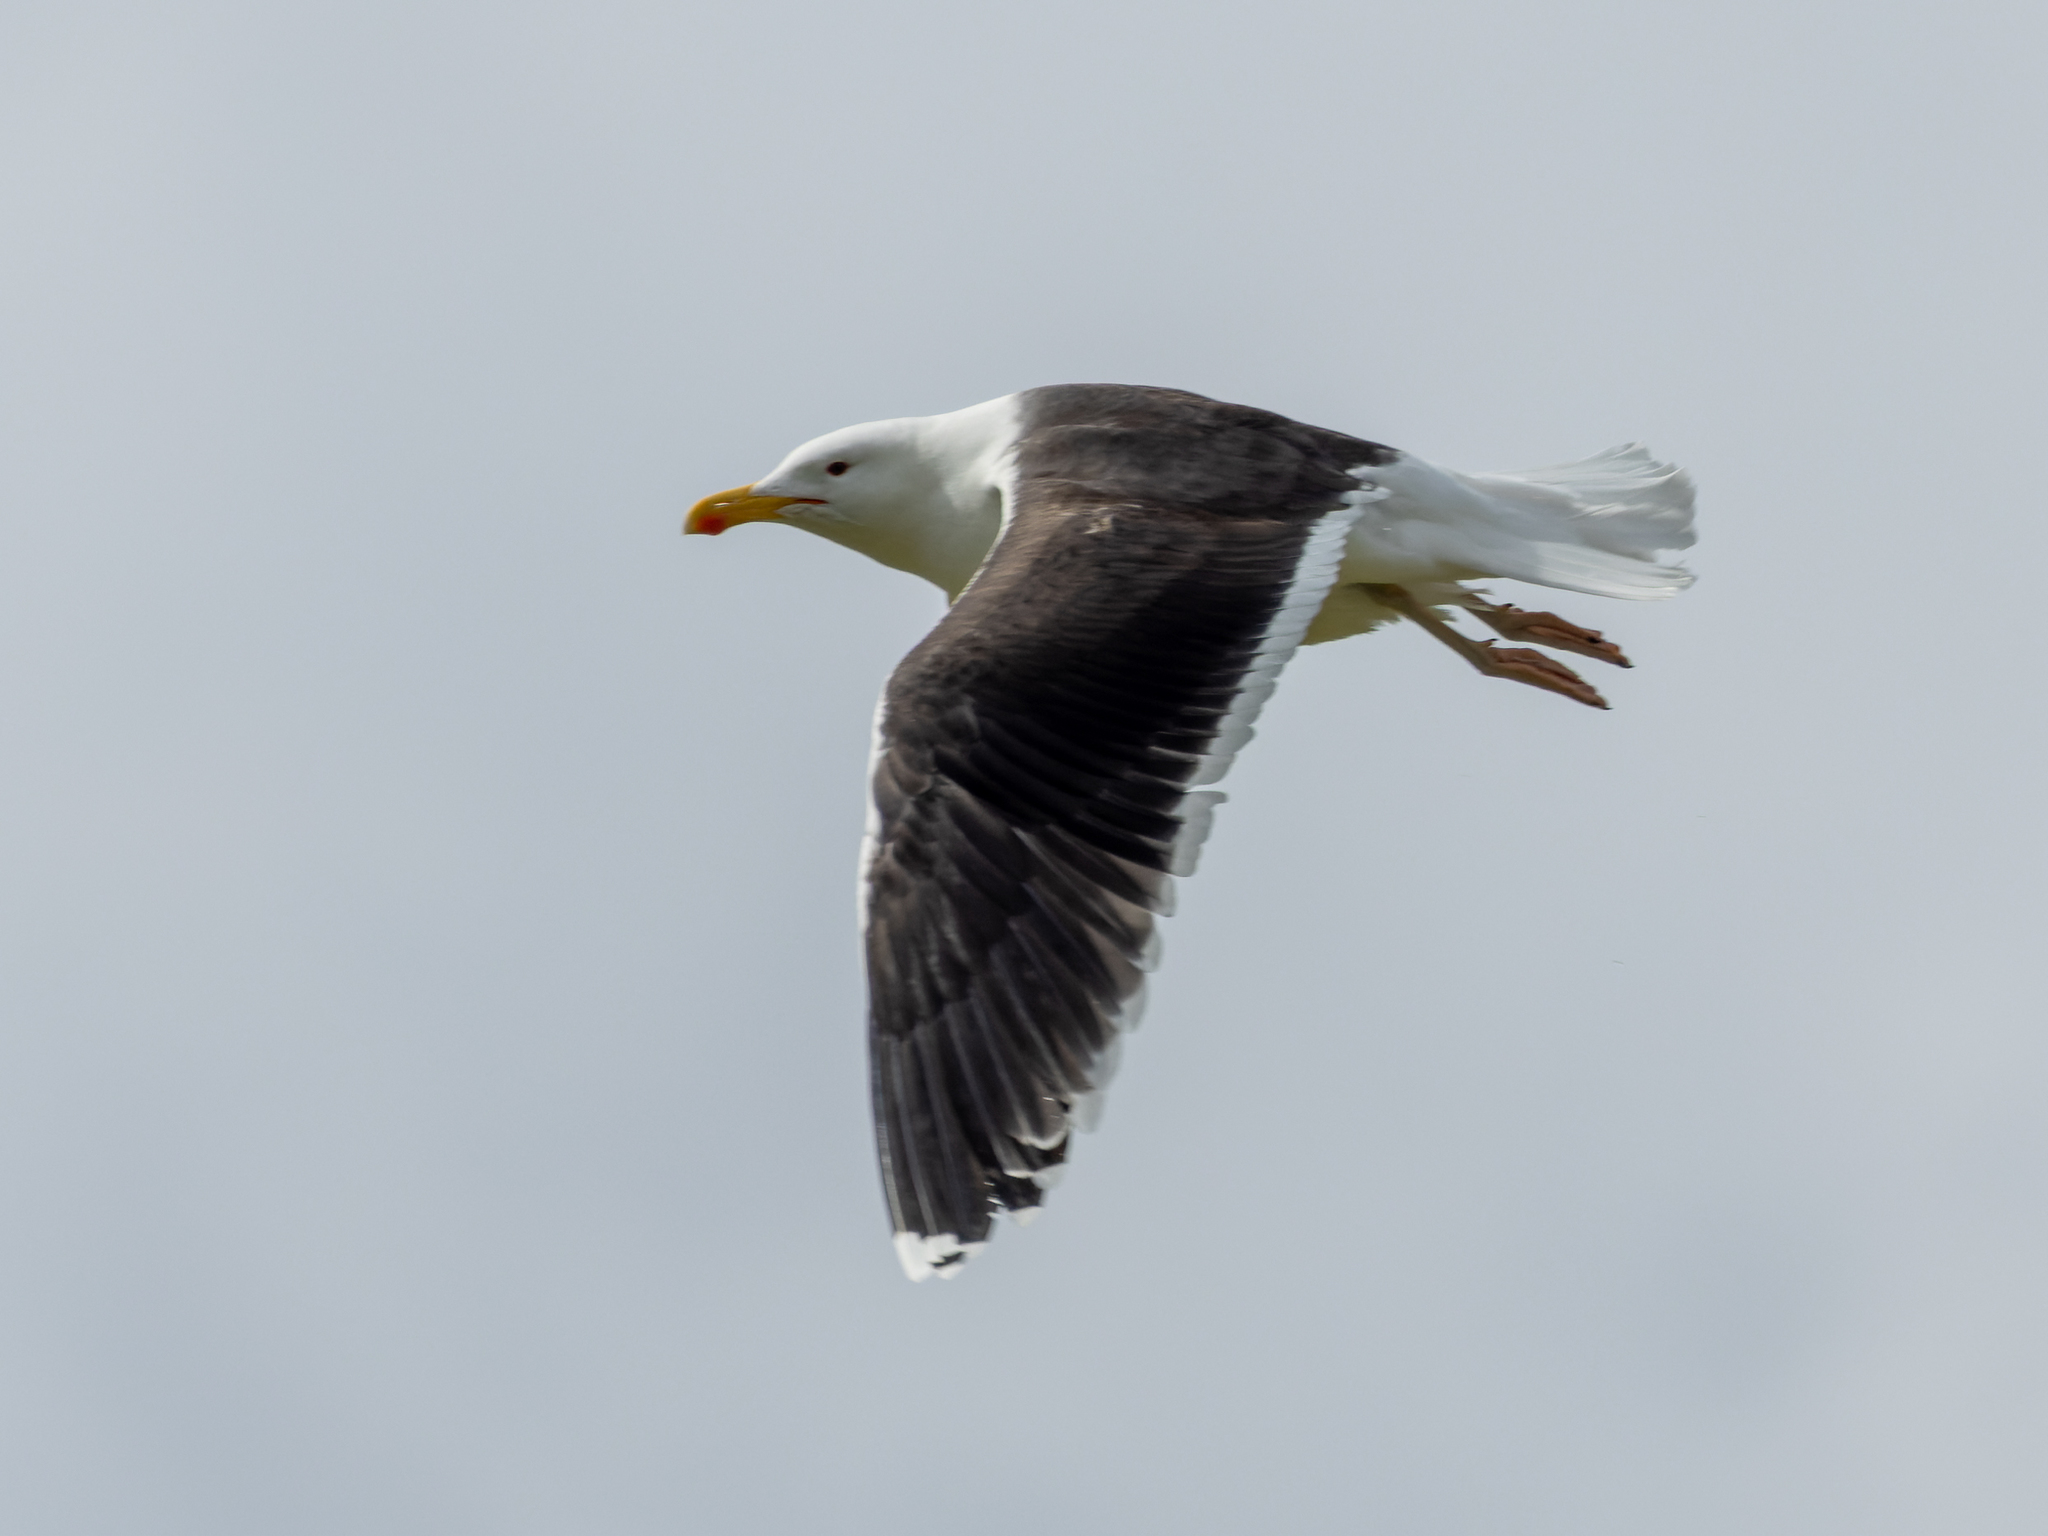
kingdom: Animalia
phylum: Chordata
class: Aves
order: Charadriiformes
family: Laridae
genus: Larus
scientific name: Larus marinus
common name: Great black-backed gull
